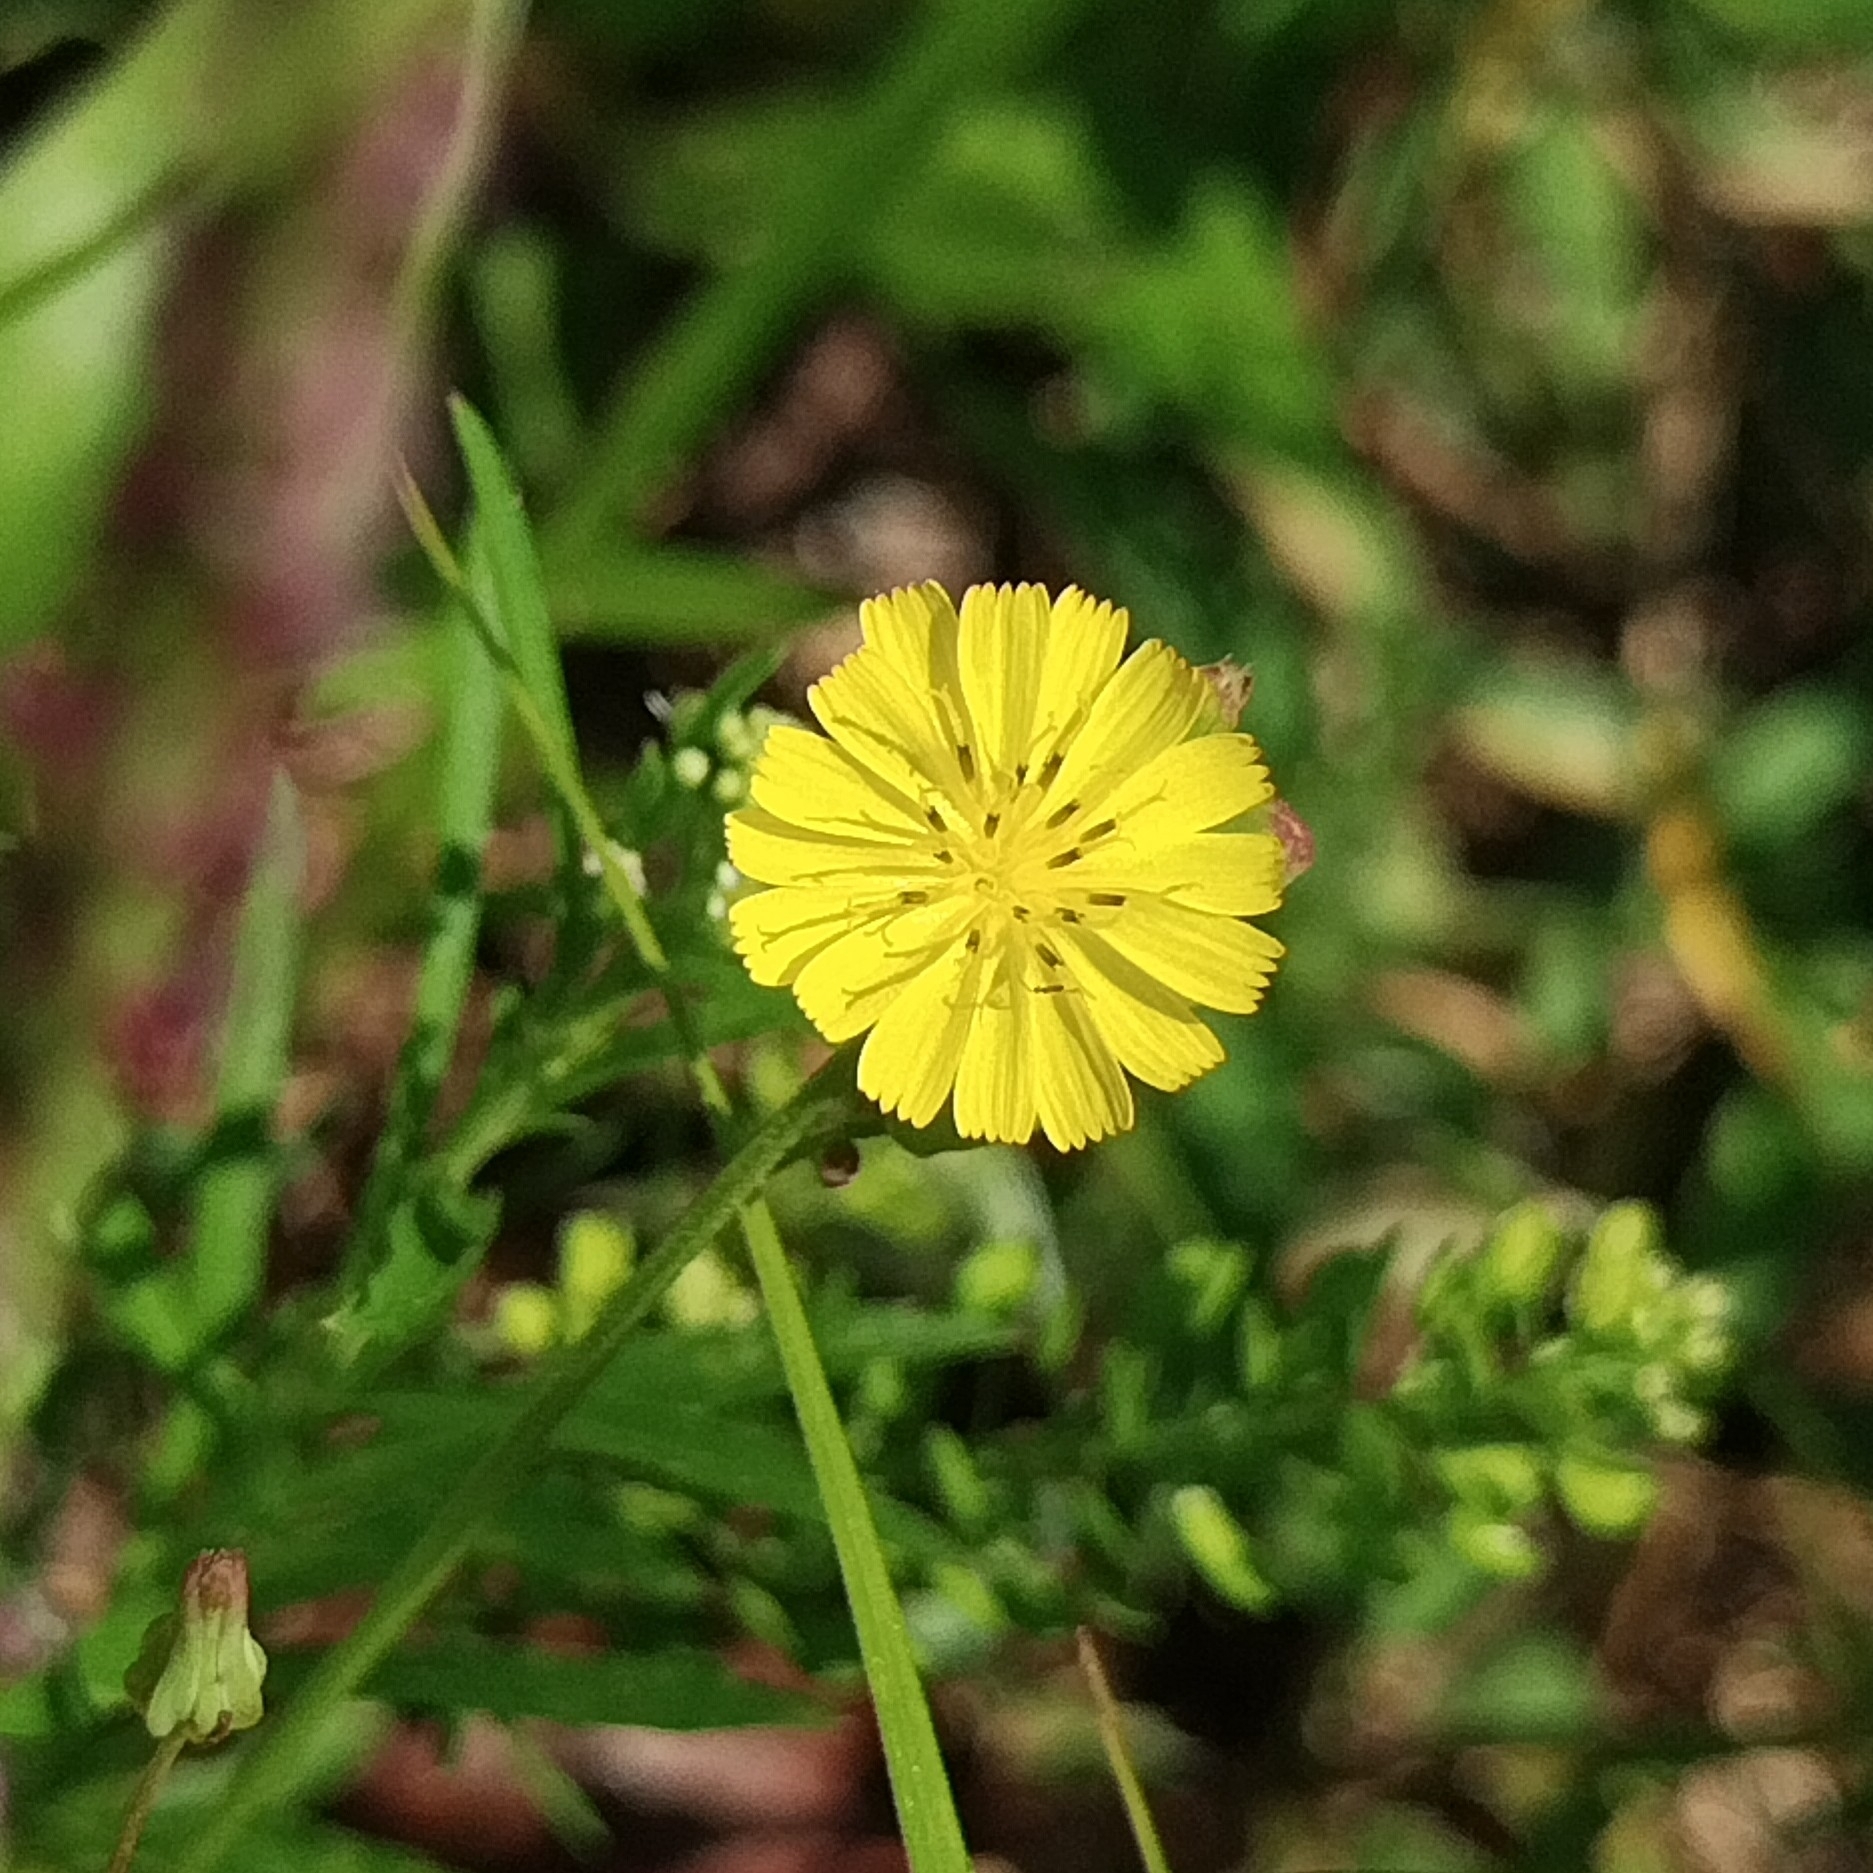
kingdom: Plantae
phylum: Tracheophyta
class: Magnoliopsida
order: Asterales
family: Asteraceae
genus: Youngia
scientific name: Youngia japonica
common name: Oriental false hawksbeard
